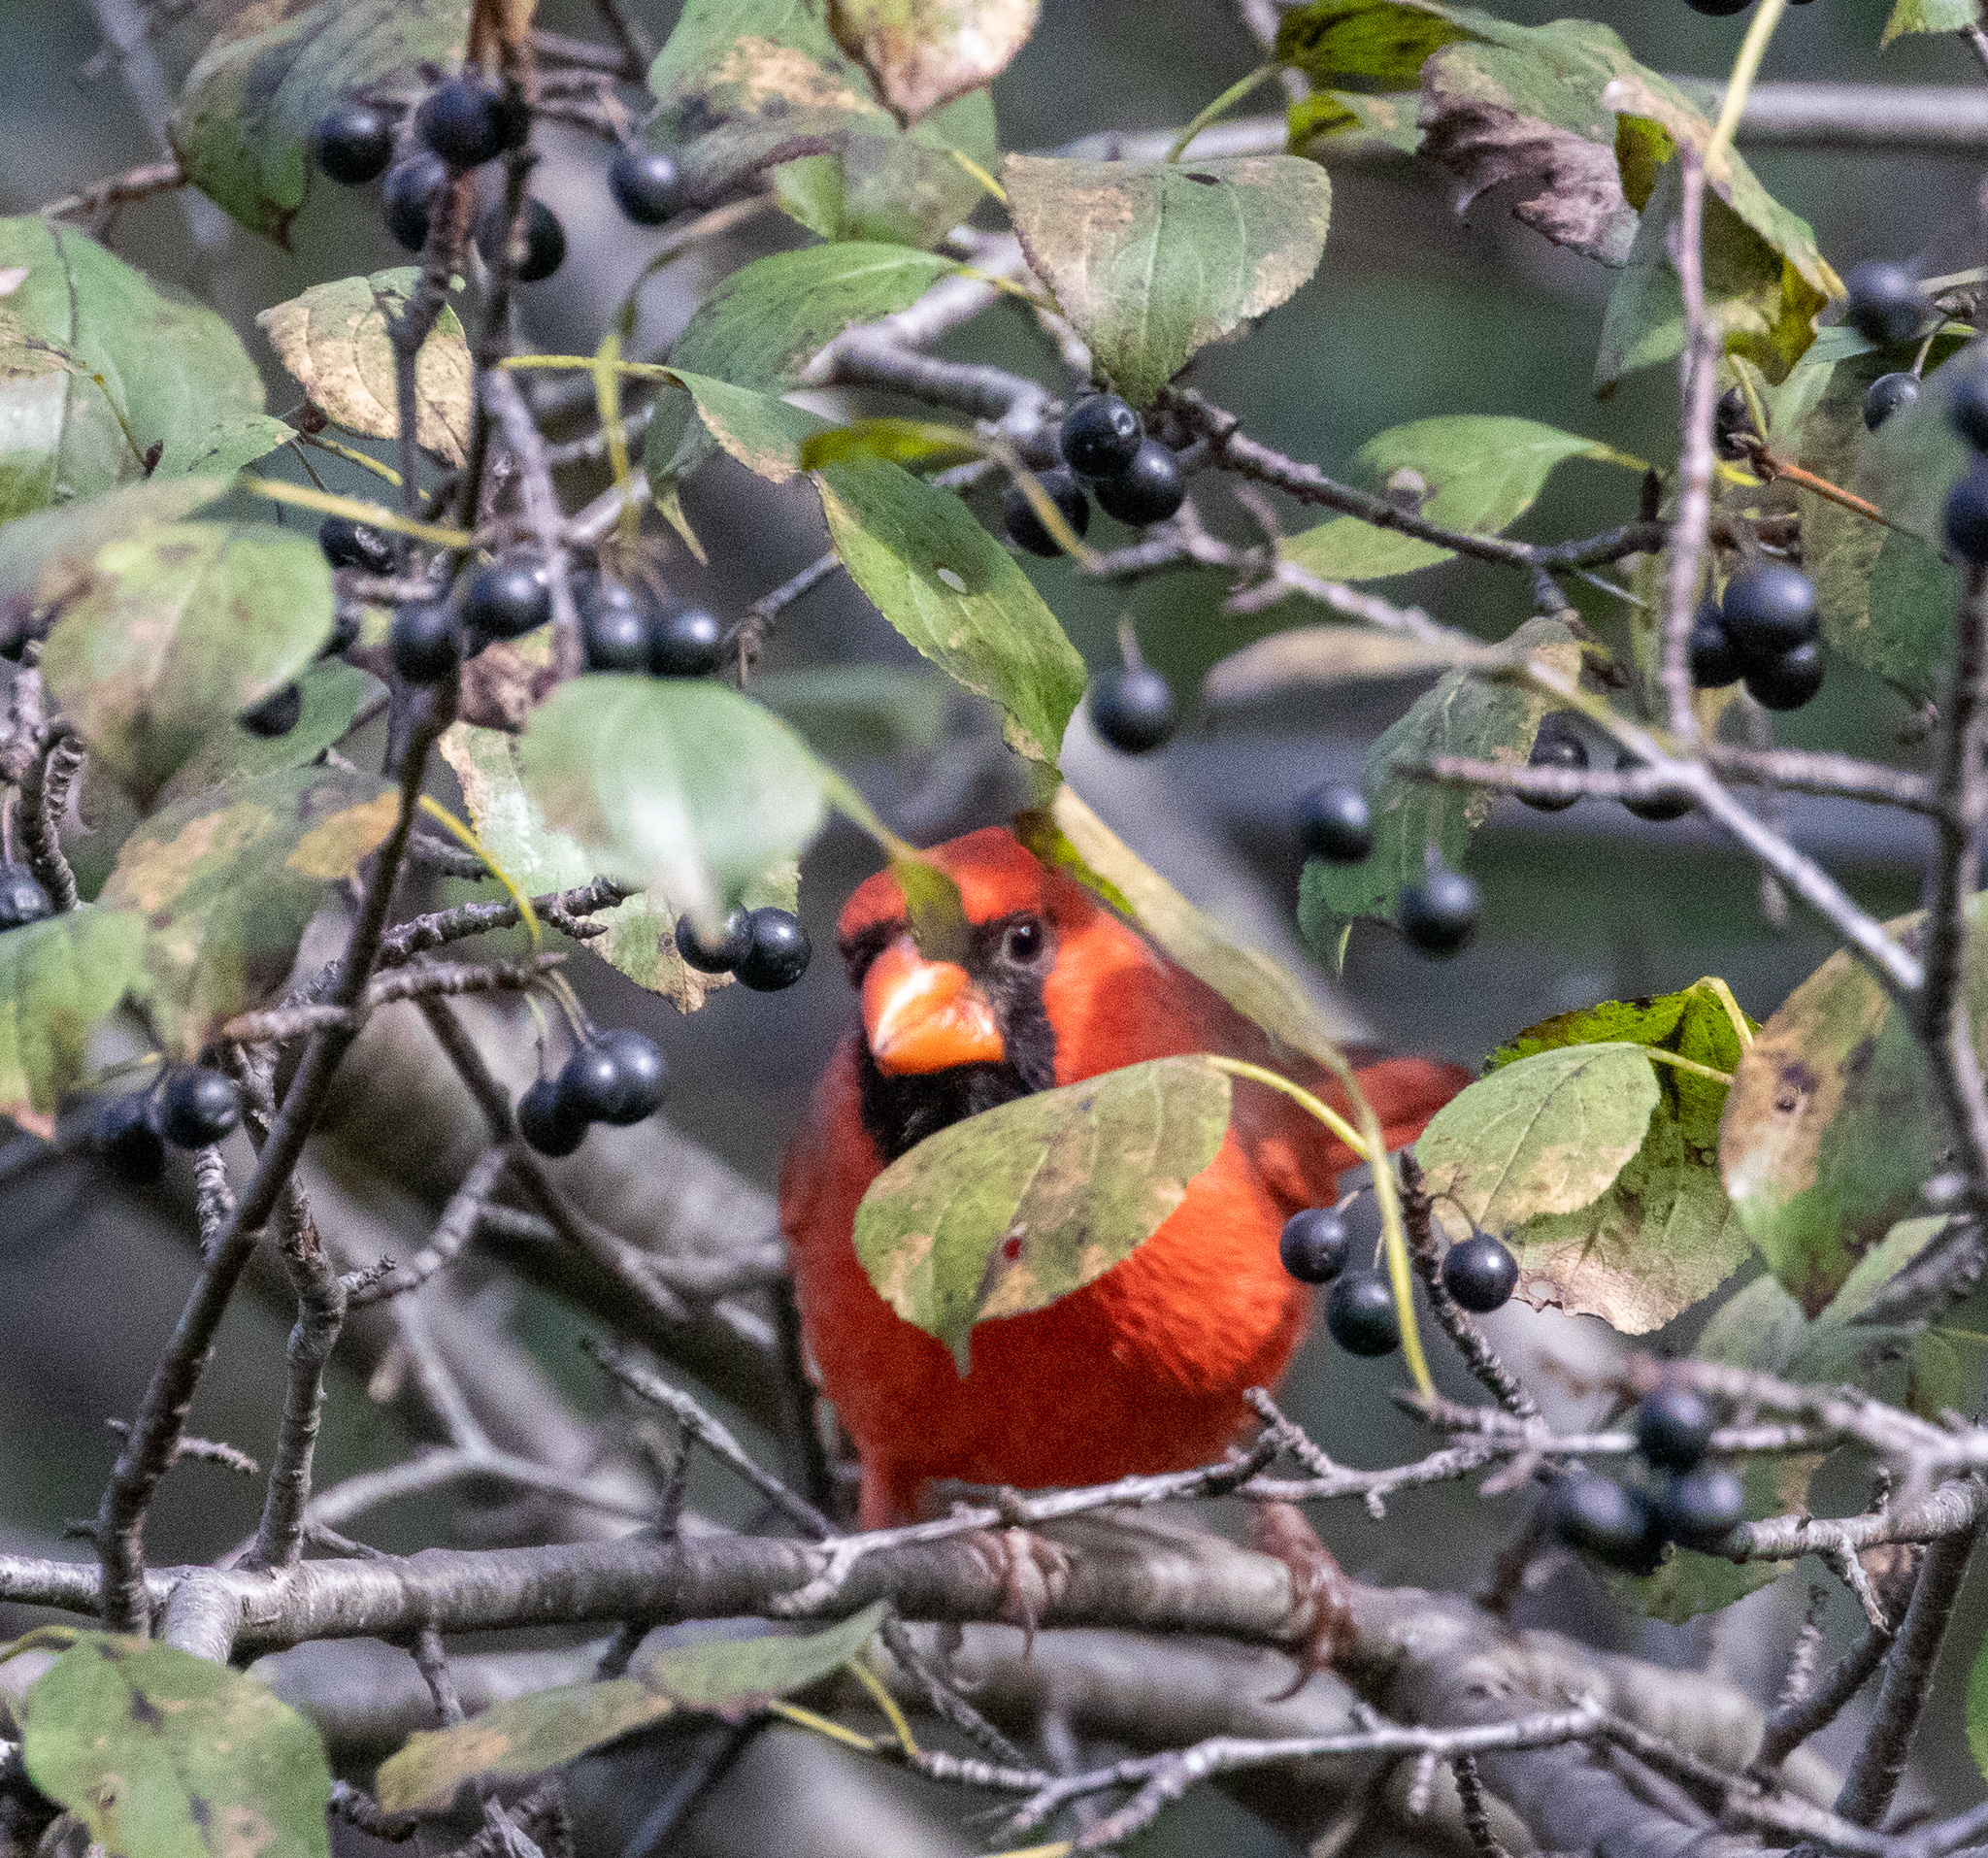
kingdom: Animalia
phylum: Chordata
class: Aves
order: Passeriformes
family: Cardinalidae
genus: Cardinalis
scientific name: Cardinalis cardinalis
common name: Northern cardinal
